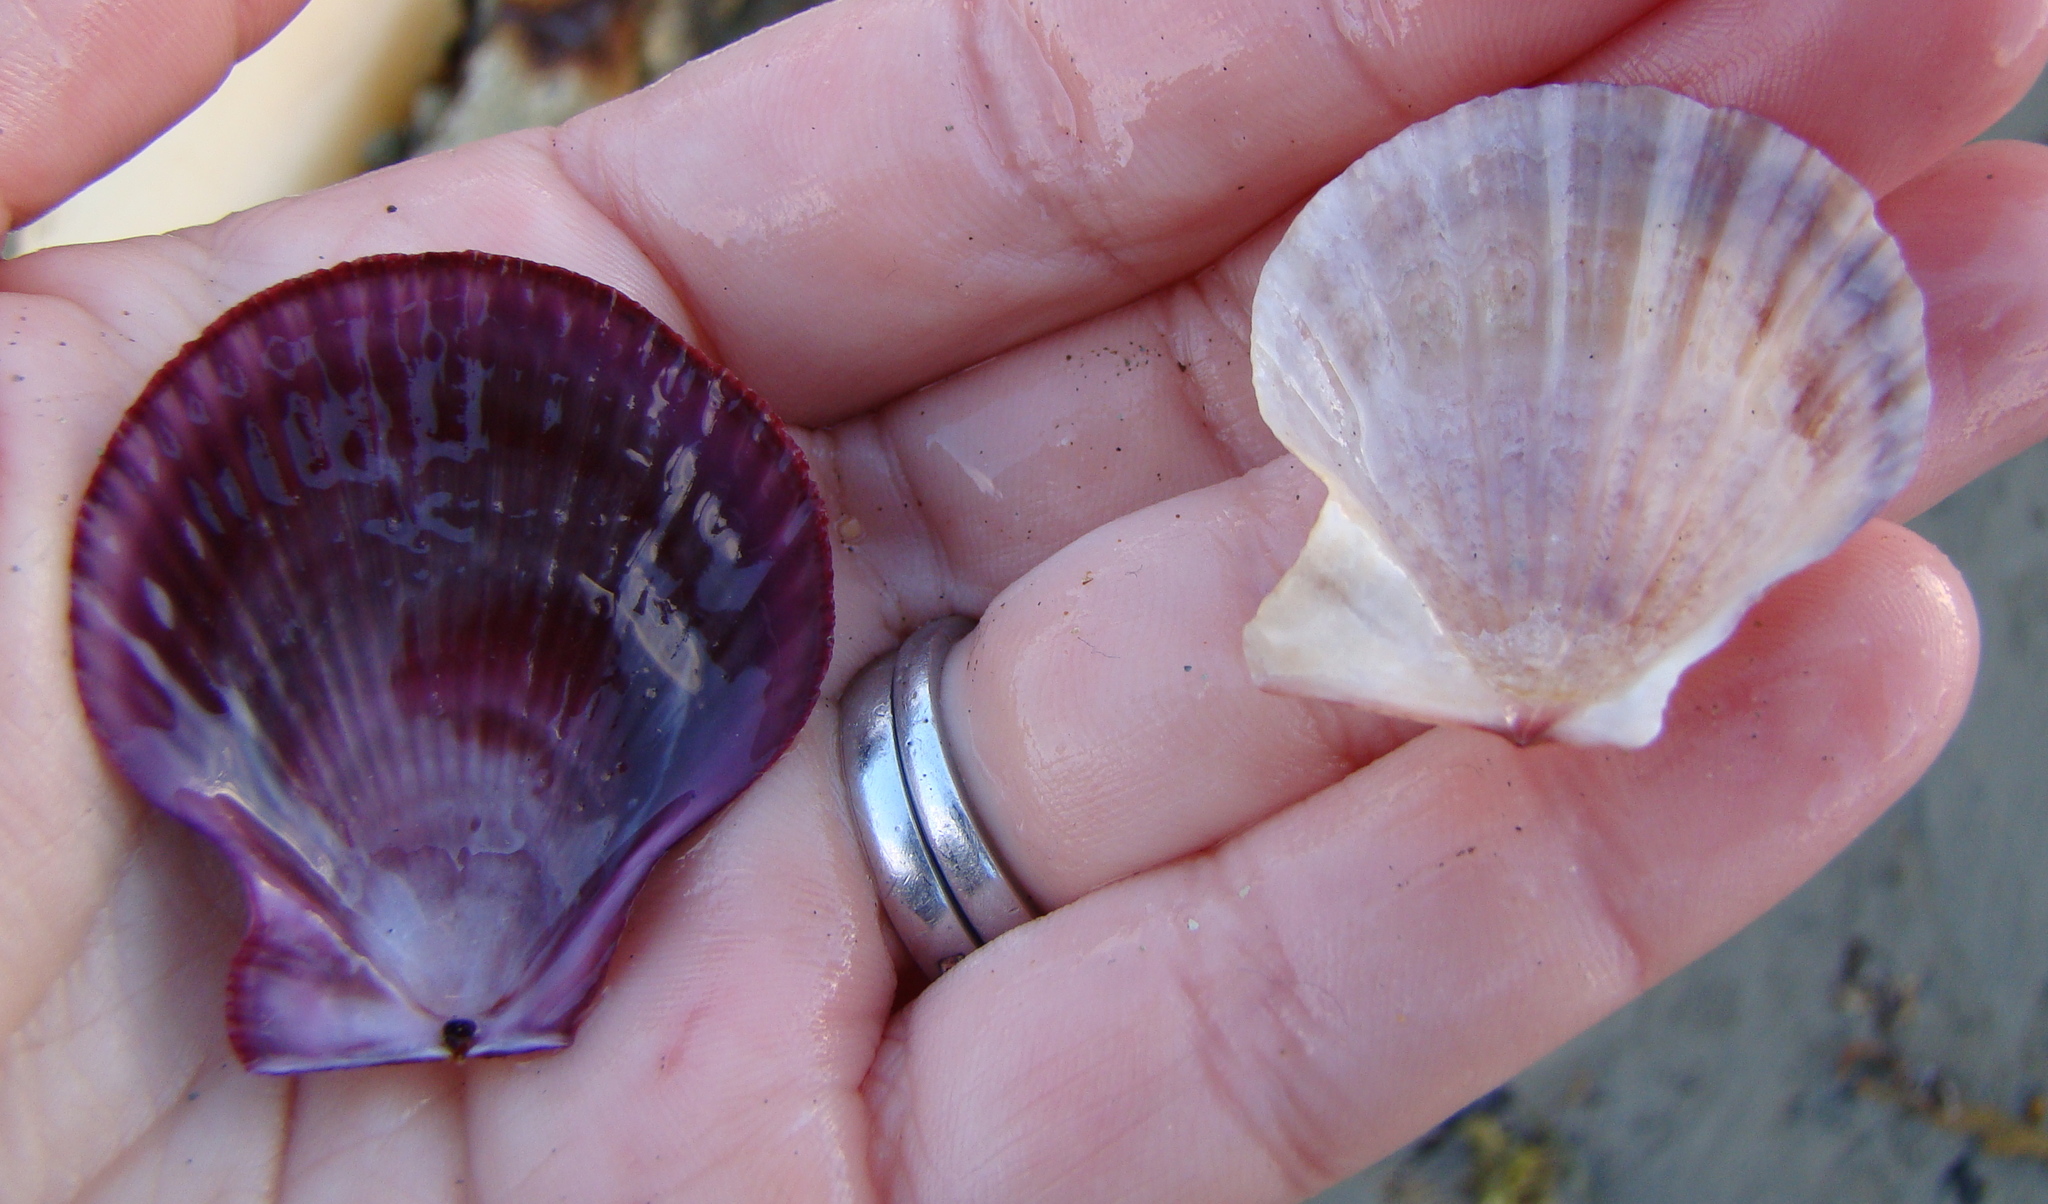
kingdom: Animalia
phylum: Mollusca
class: Bivalvia
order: Pectinida
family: Pectinidae
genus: Talochlamys
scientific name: Talochlamys gemmulata
